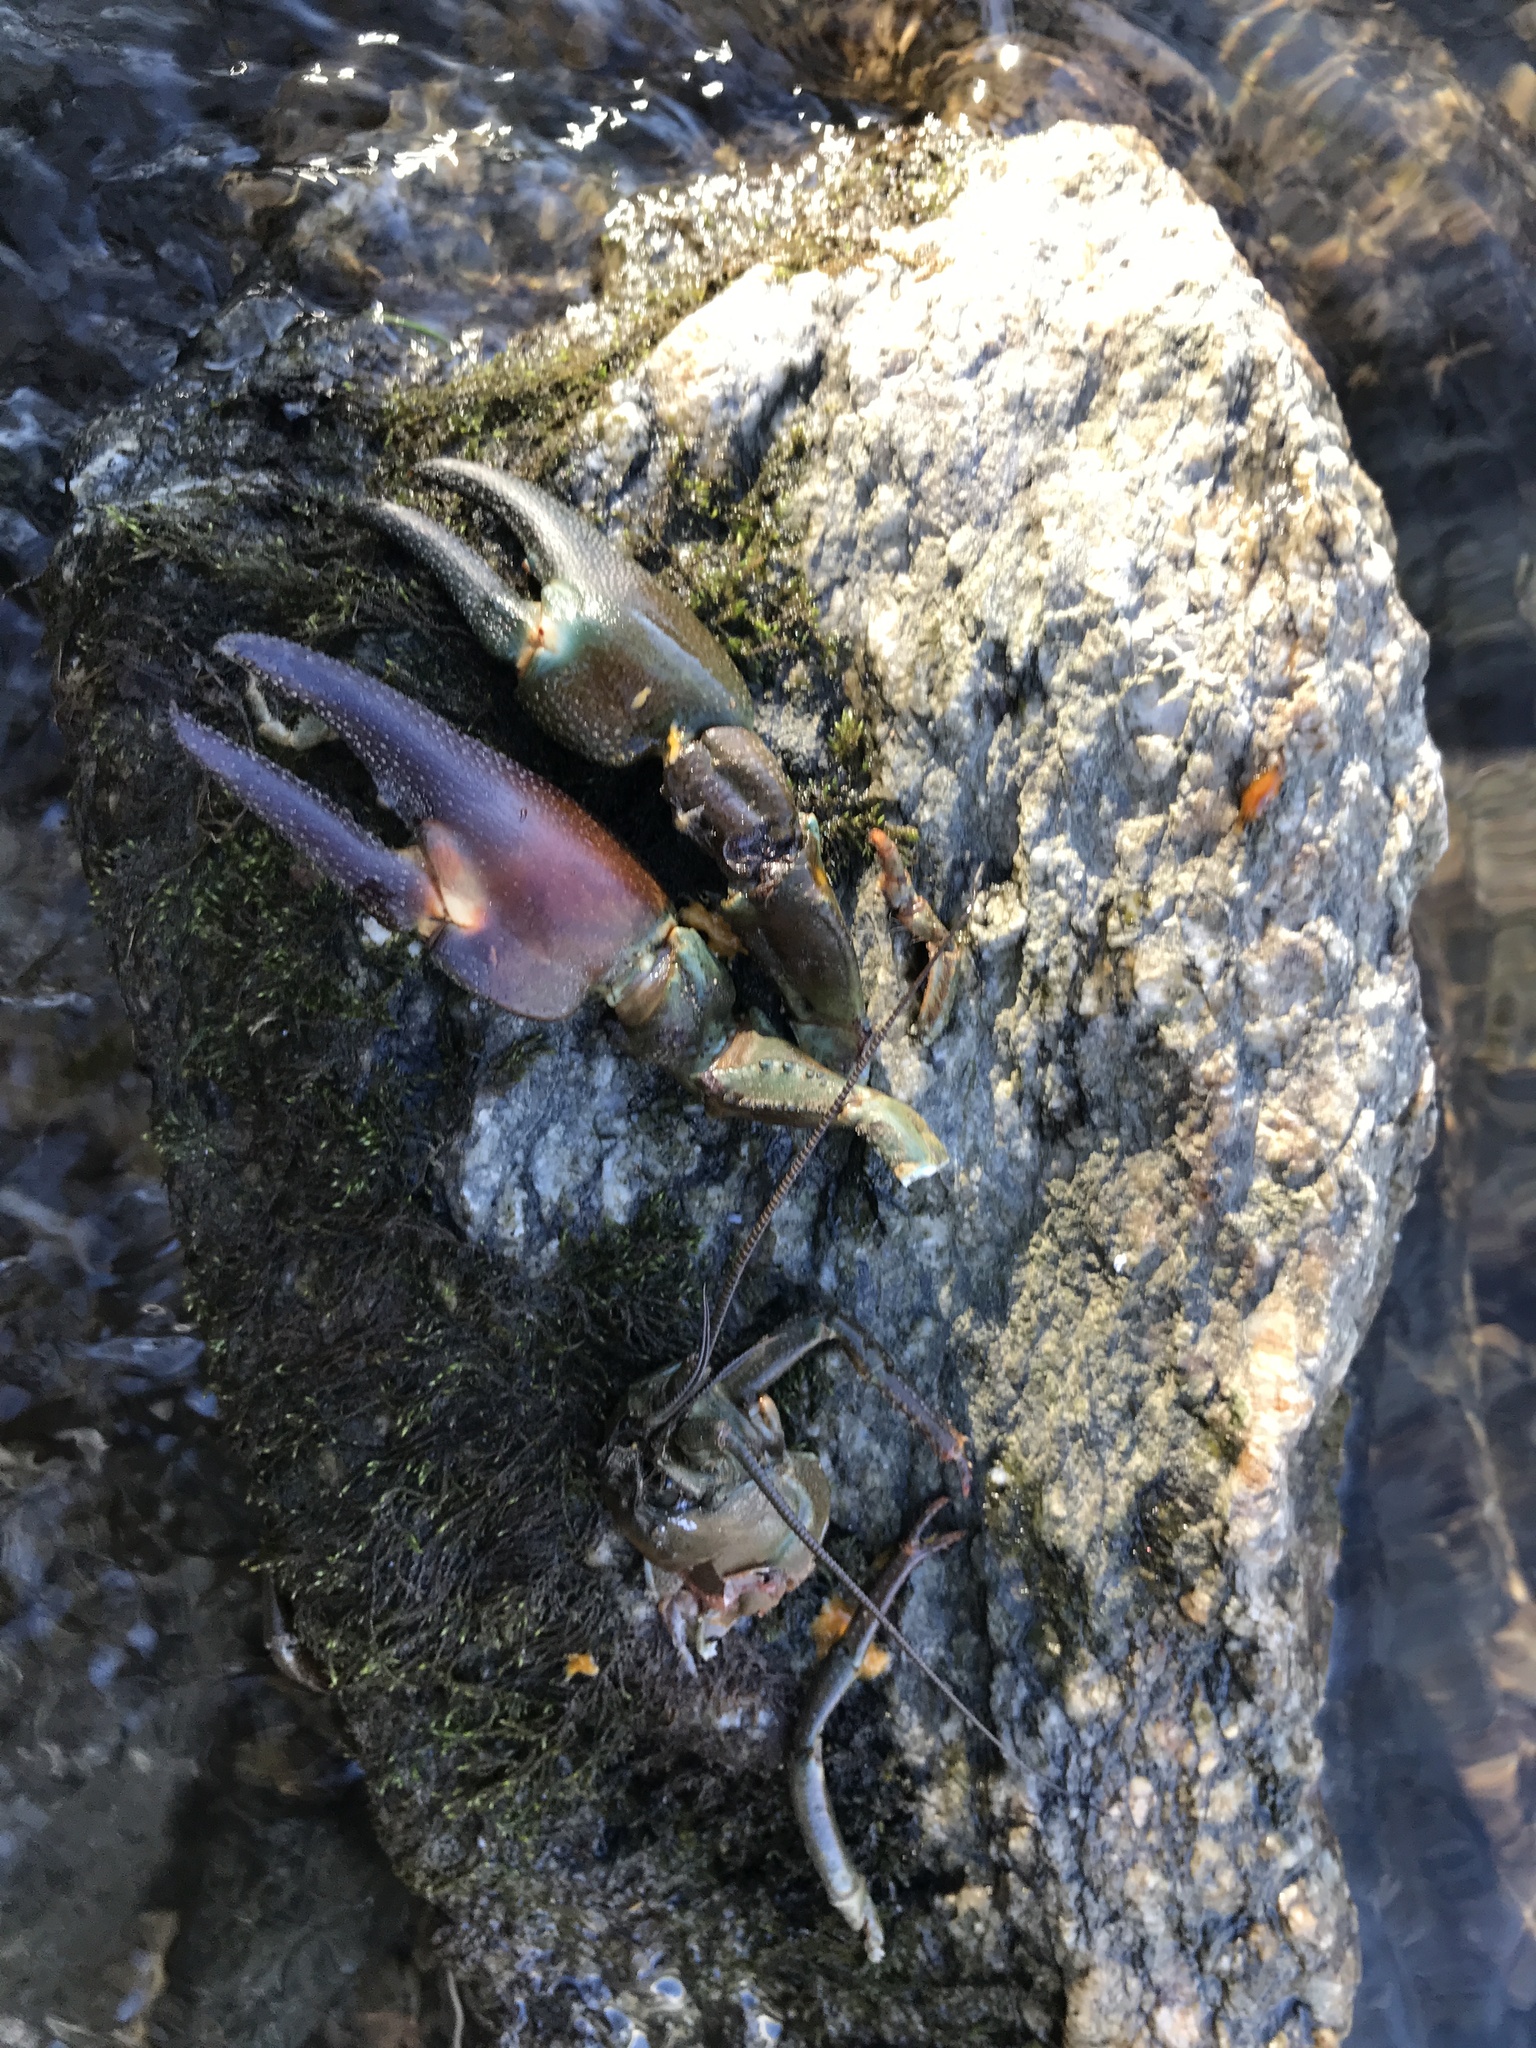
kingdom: Animalia
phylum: Arthropoda
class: Malacostraca
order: Decapoda
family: Astacidae
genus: Pacifastacus
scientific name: Pacifastacus leniusculus
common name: Signal crayfish
